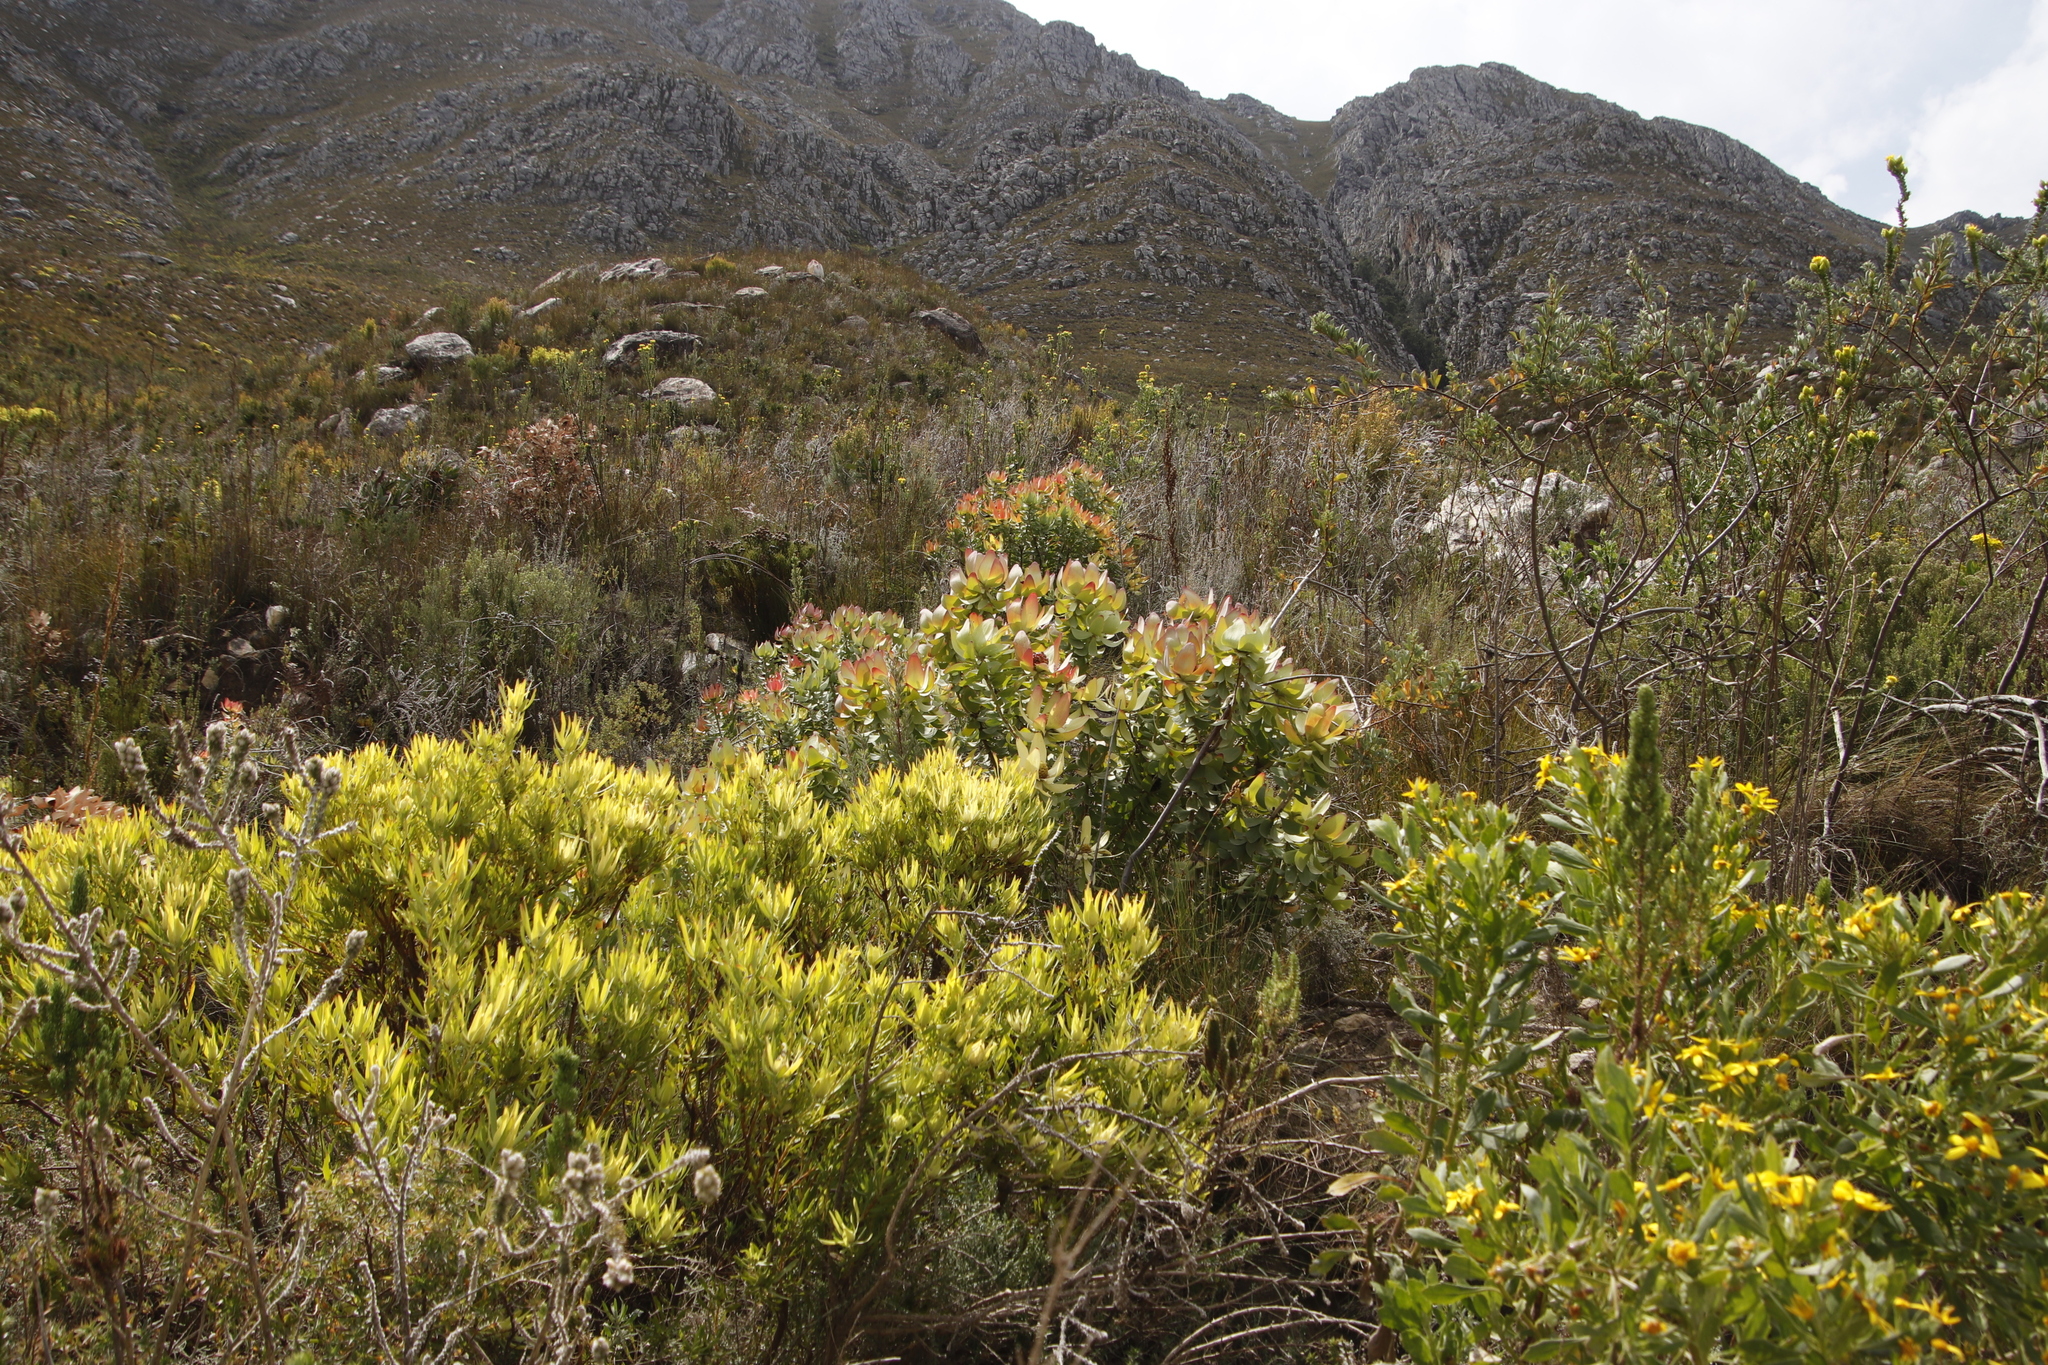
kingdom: Plantae
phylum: Tracheophyta
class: Magnoliopsida
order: Proteales
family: Proteaceae
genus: Leucadendron
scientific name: Leucadendron salignum
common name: Common sunshine conebush
